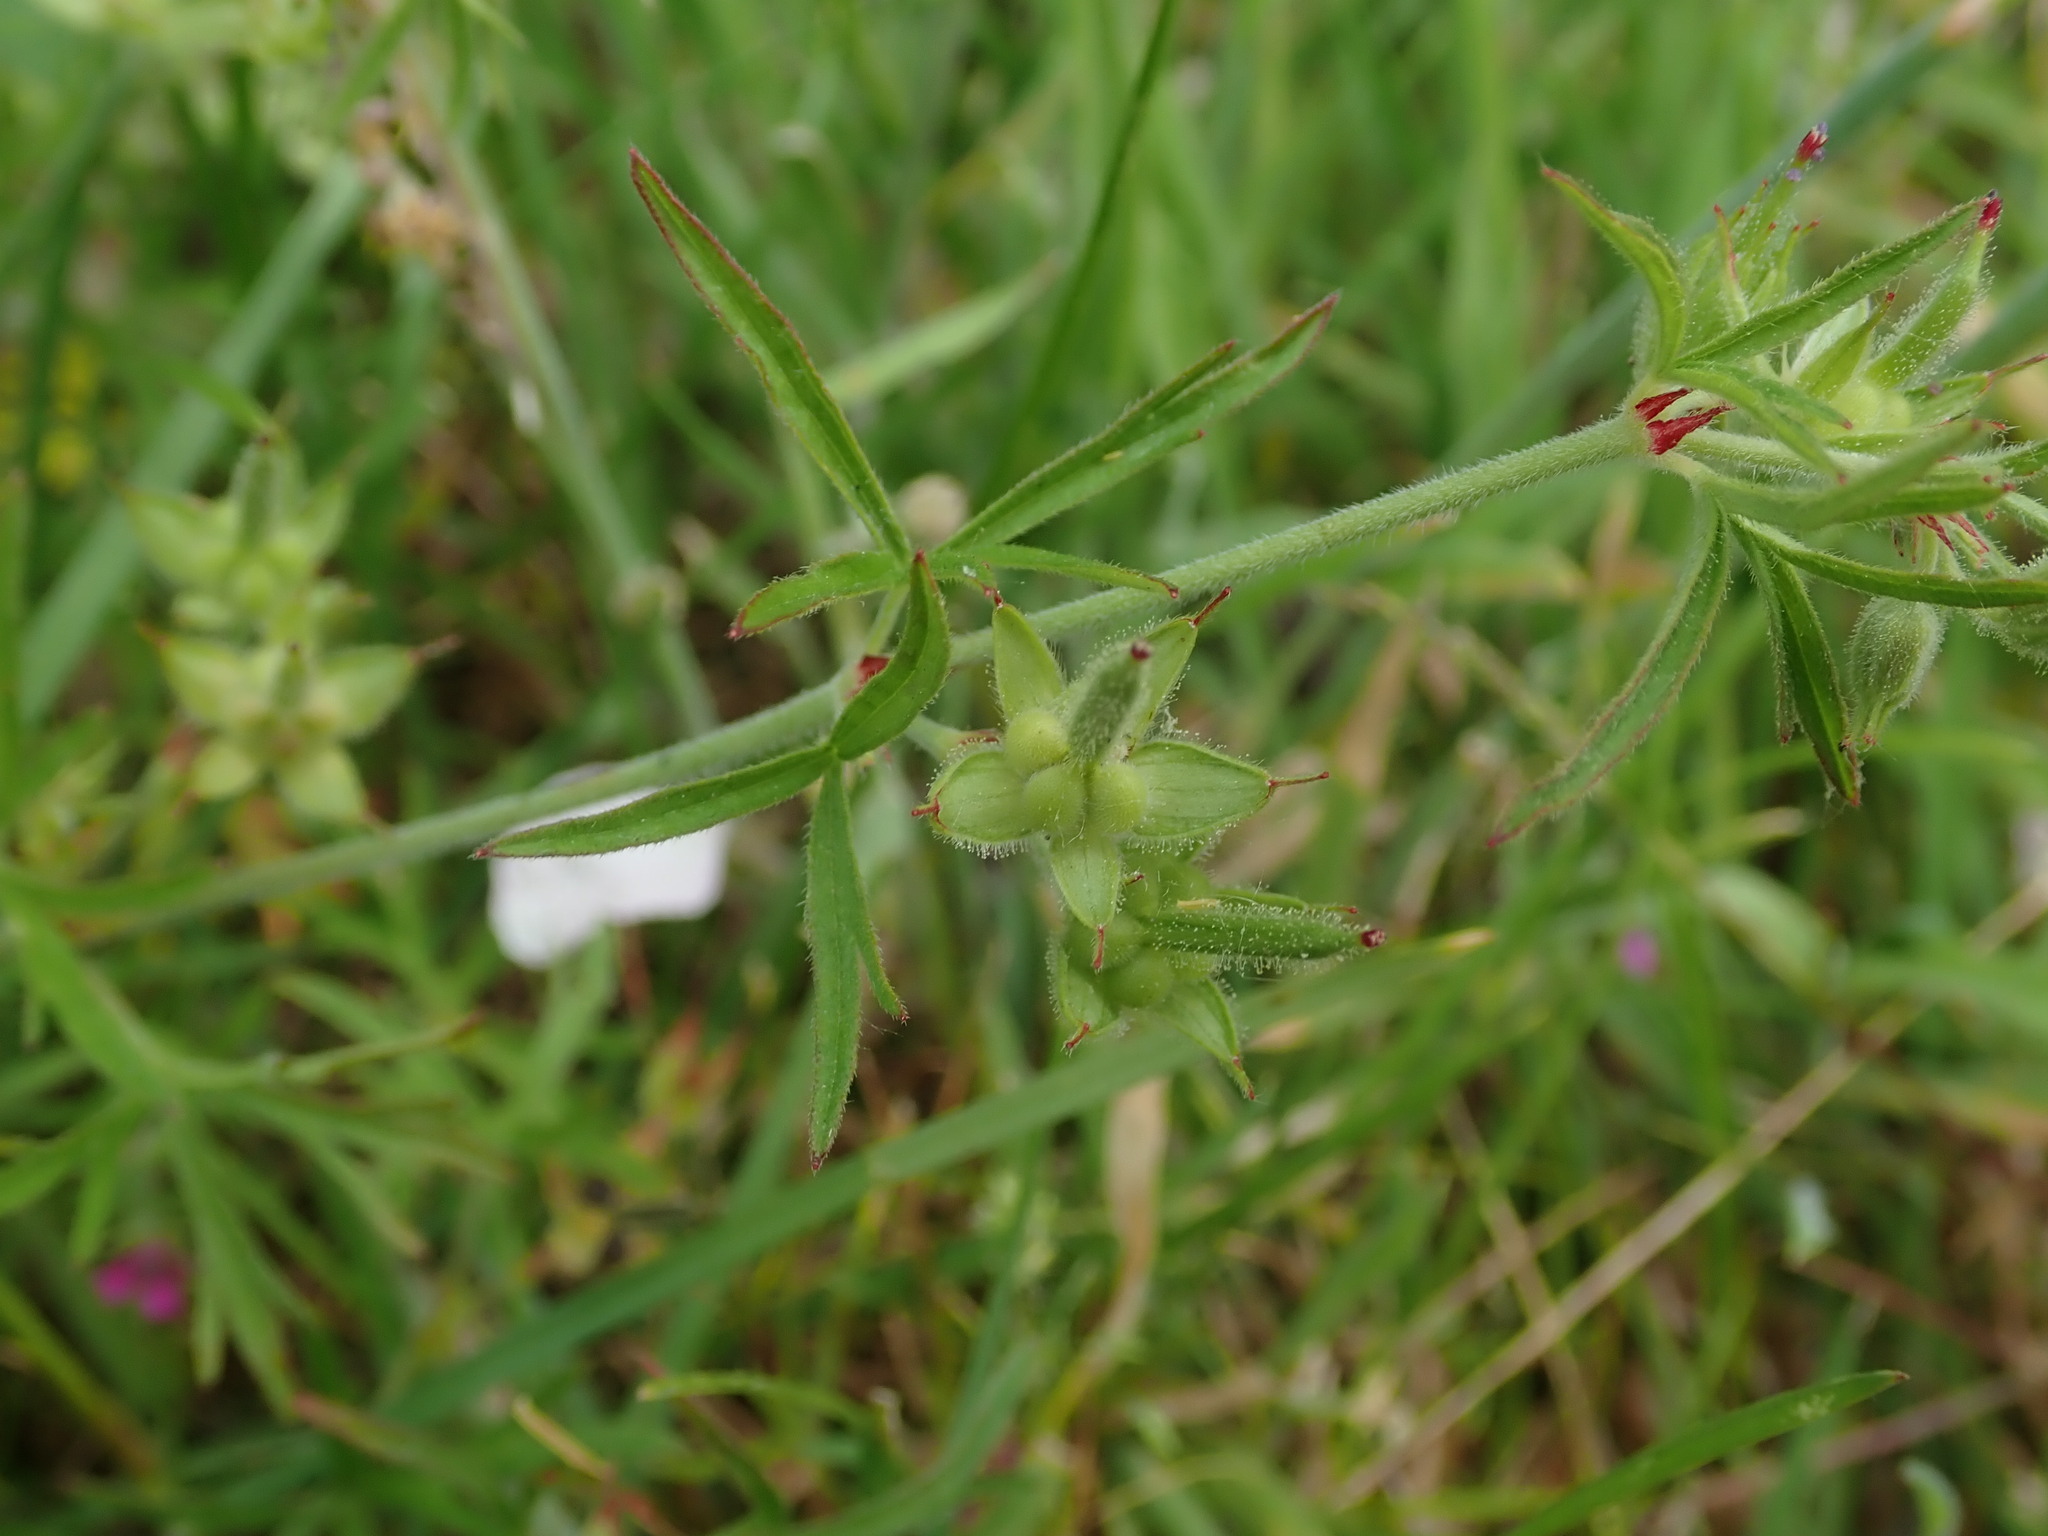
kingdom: Plantae
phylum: Tracheophyta
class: Magnoliopsida
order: Geraniales
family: Geraniaceae
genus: Geranium
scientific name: Geranium dissectum
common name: Cut-leaved crane's-bill
